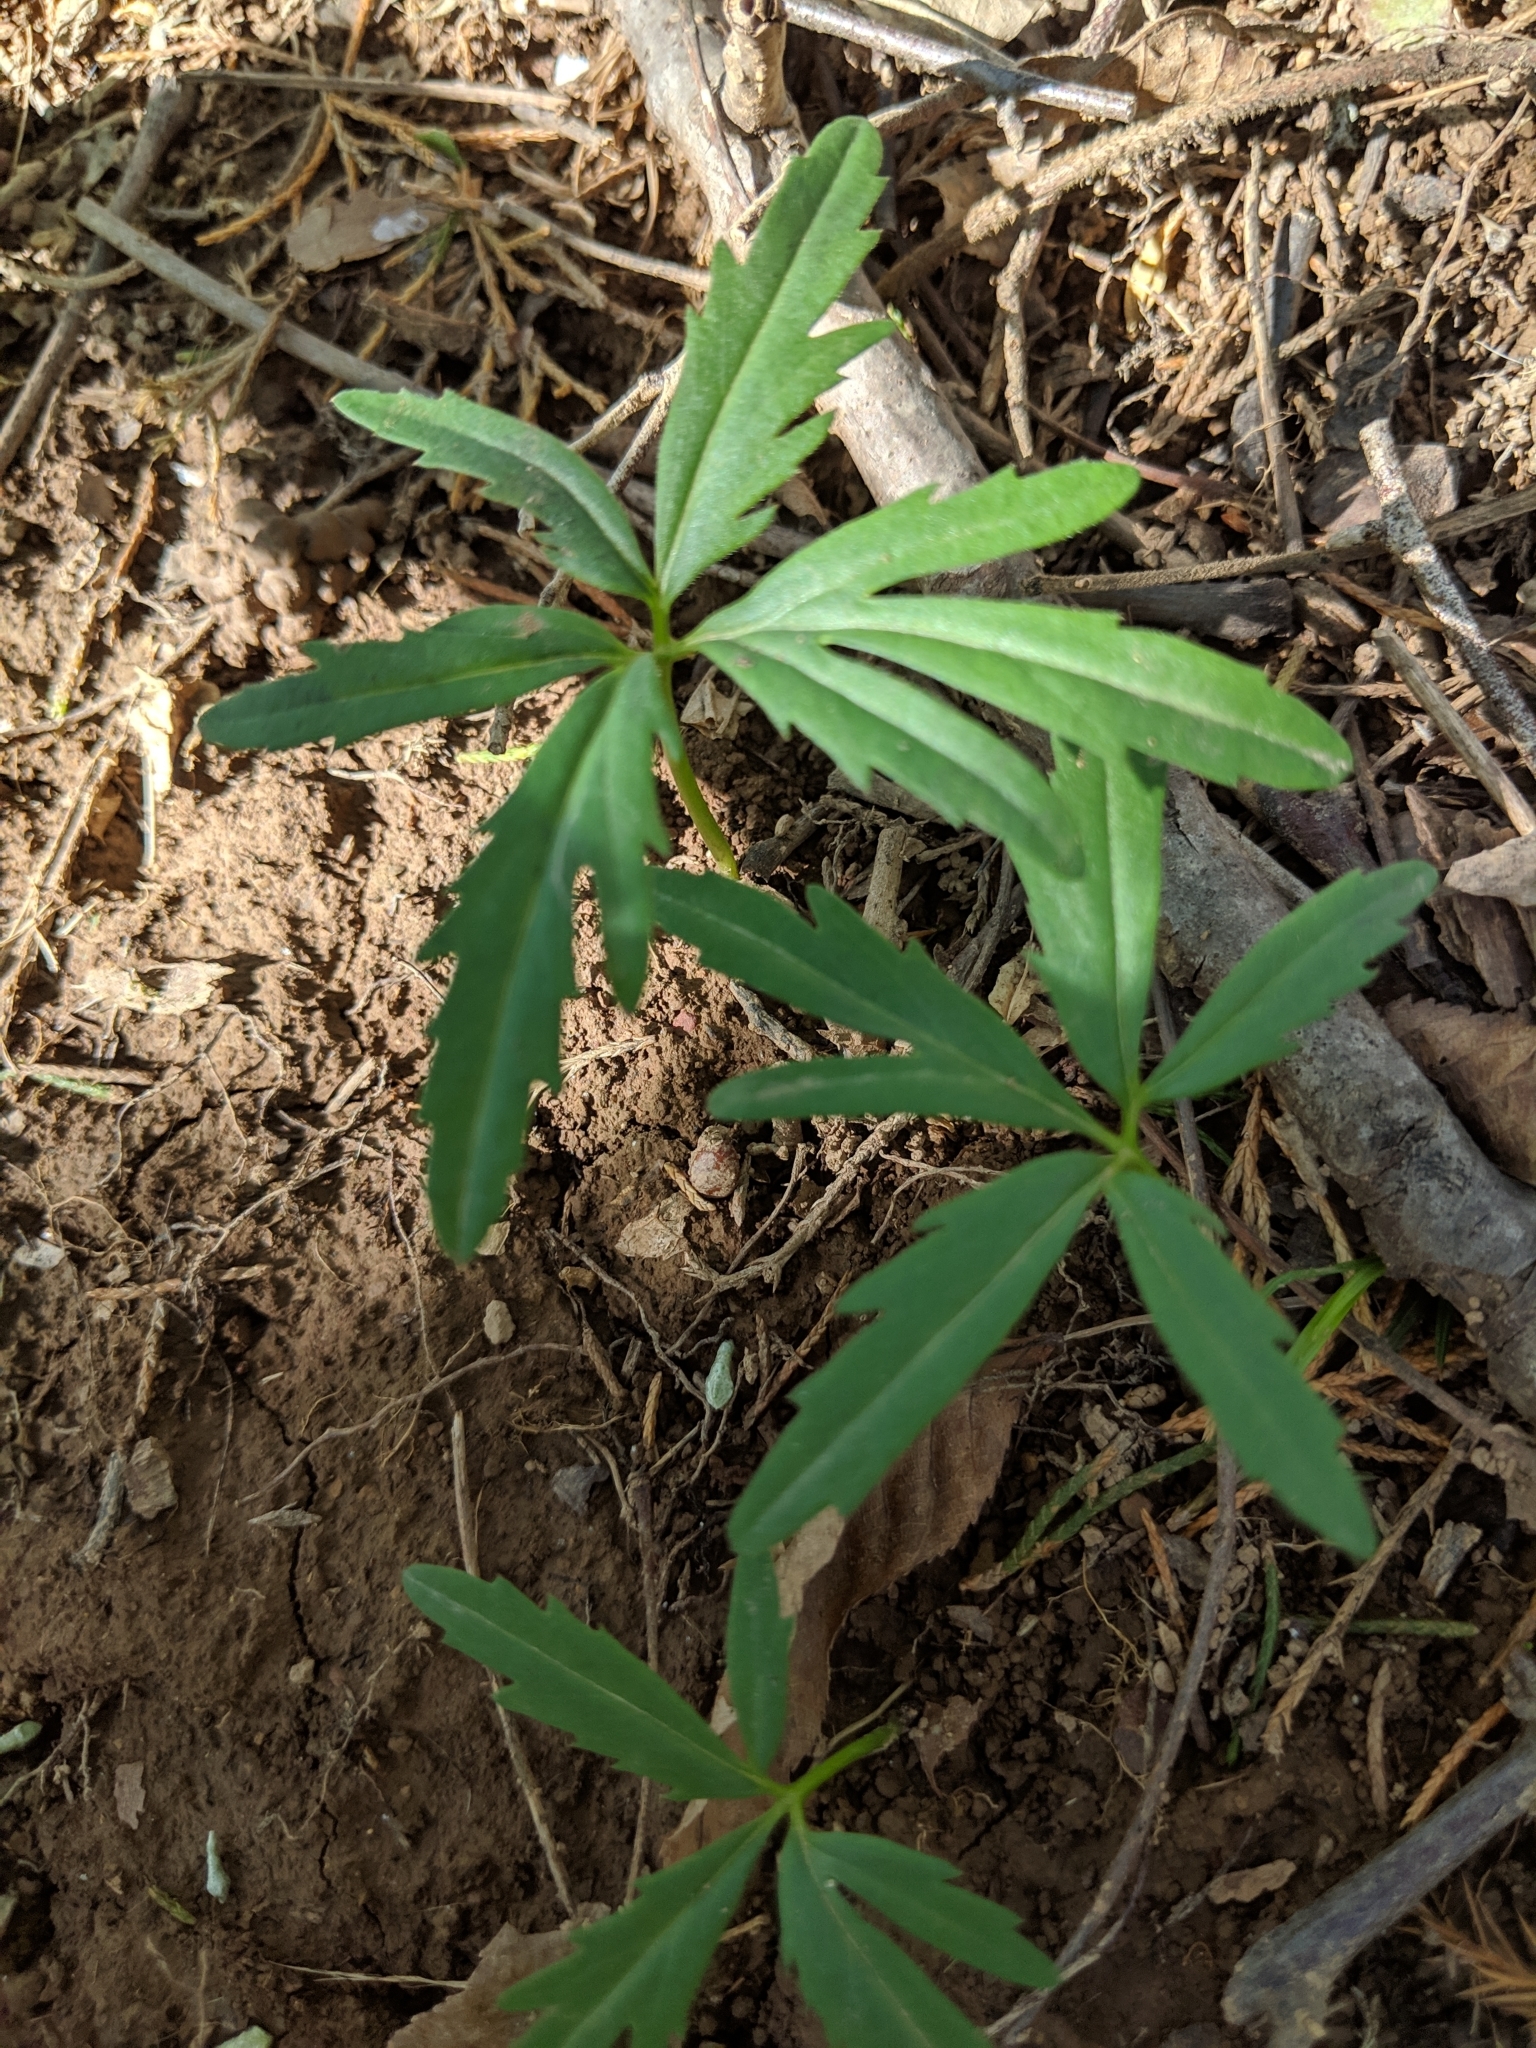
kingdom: Plantae
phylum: Tracheophyta
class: Magnoliopsida
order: Brassicales
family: Brassicaceae
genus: Cardamine
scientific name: Cardamine concatenata
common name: Cut-leaf toothcup
